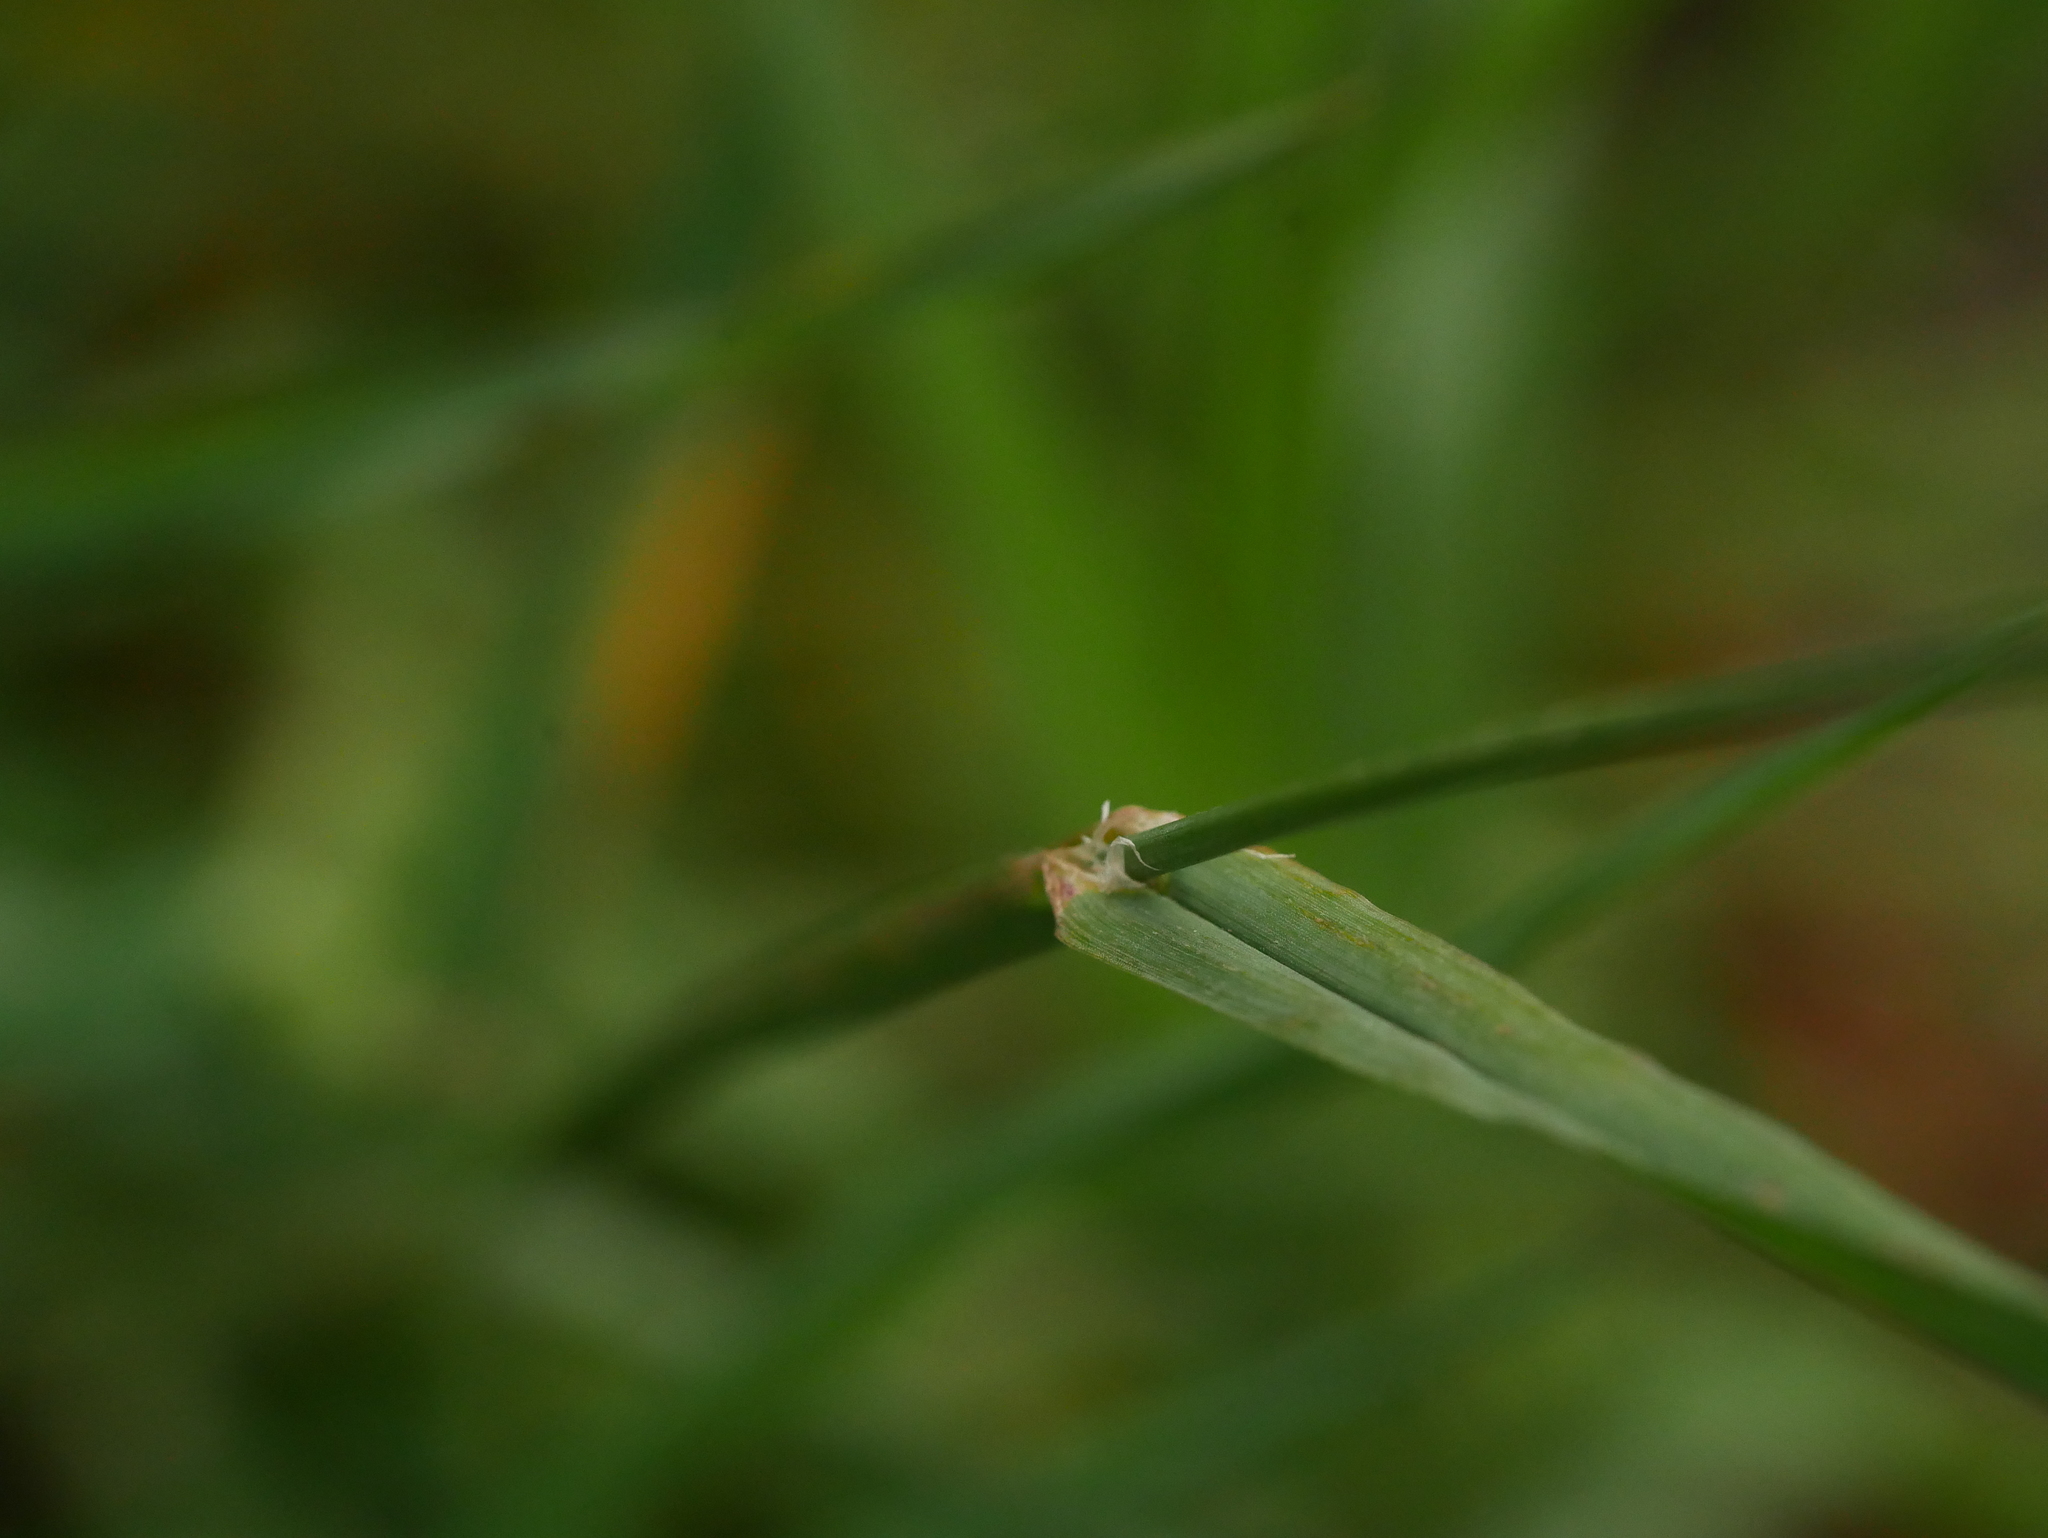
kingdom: Plantae
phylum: Tracheophyta
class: Liliopsida
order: Poales
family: Poaceae
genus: Dactylis
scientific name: Dactylis glomerata
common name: Orchardgrass
